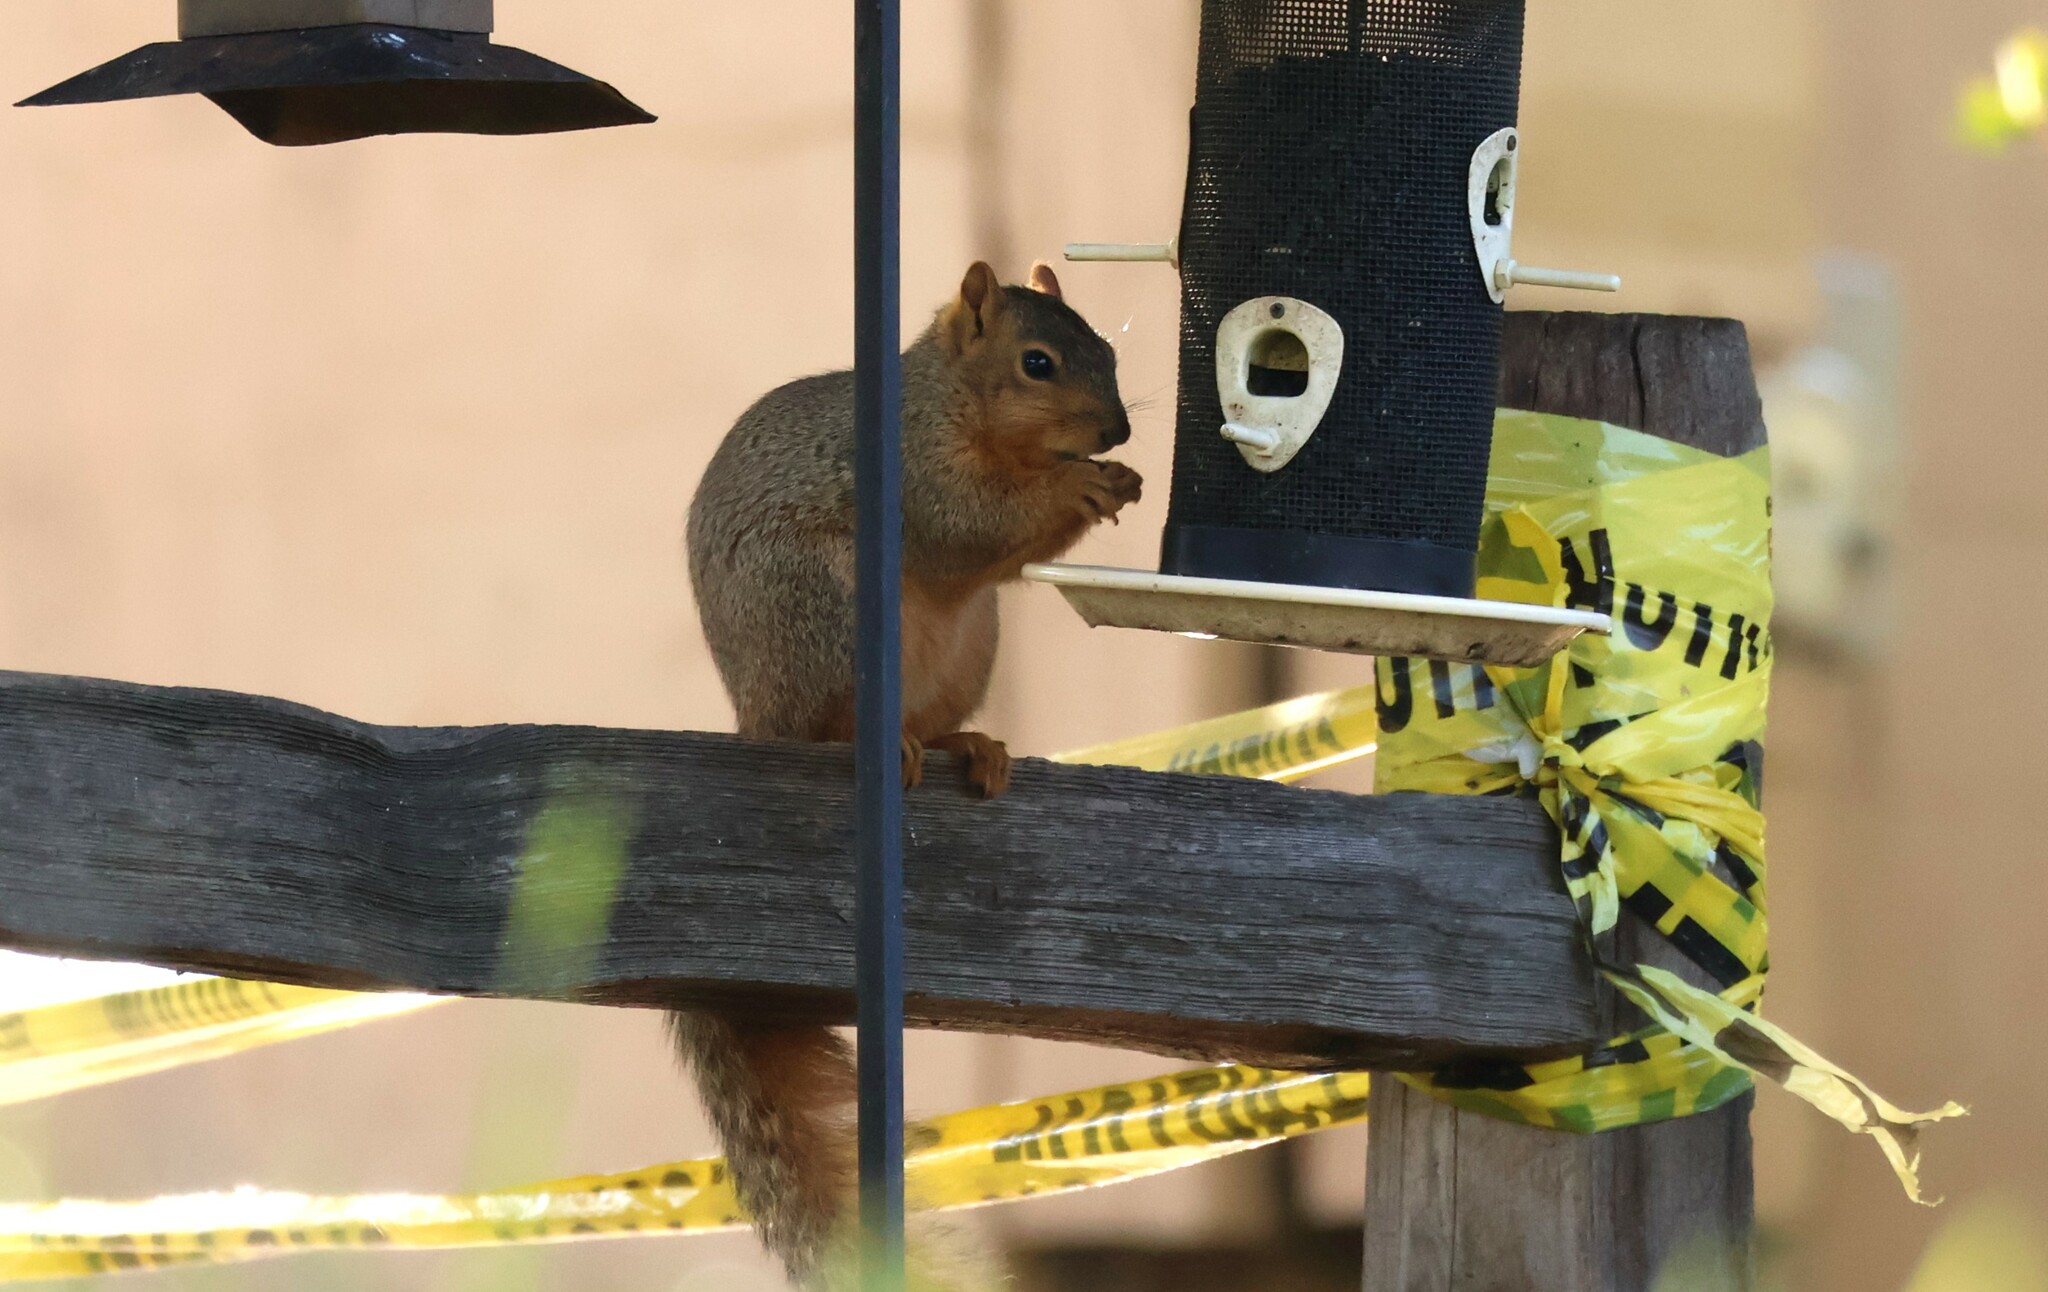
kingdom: Animalia
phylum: Chordata
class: Mammalia
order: Rodentia
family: Sciuridae
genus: Sciurus
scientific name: Sciurus niger
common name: Fox squirrel
